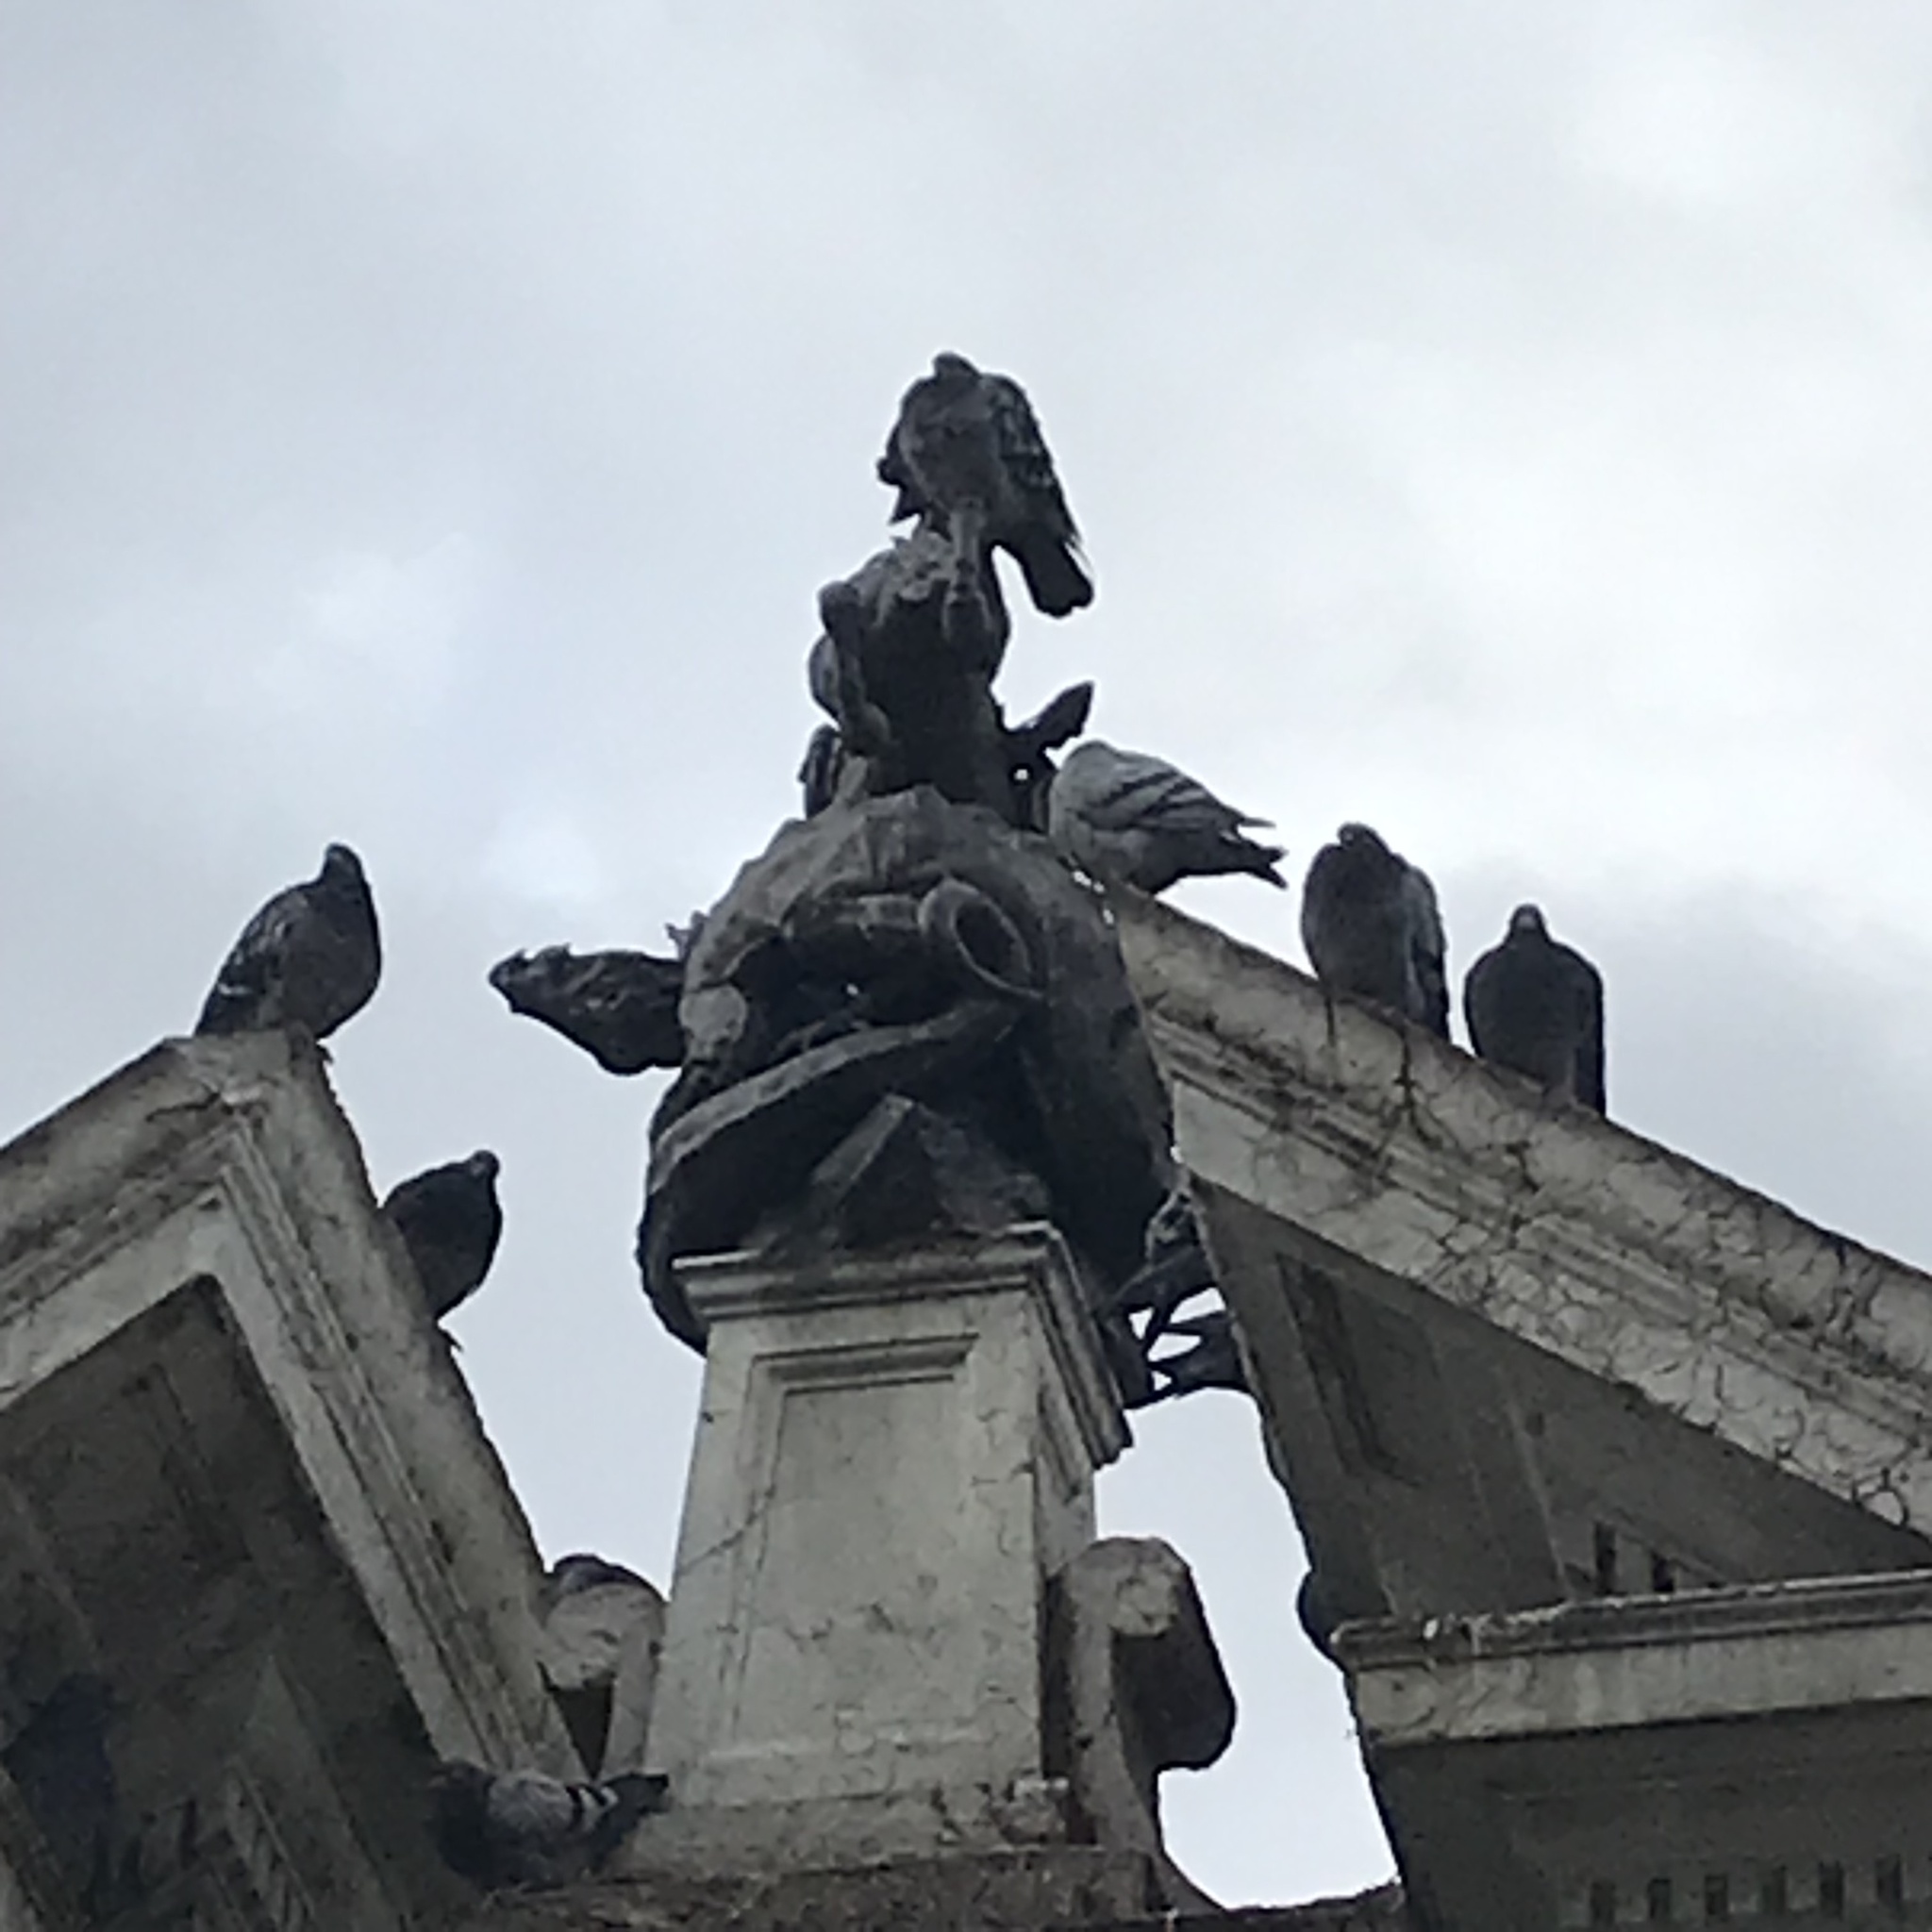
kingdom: Animalia
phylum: Chordata
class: Aves
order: Columbiformes
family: Columbidae
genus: Columba
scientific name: Columba livia
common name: Rock pigeon
